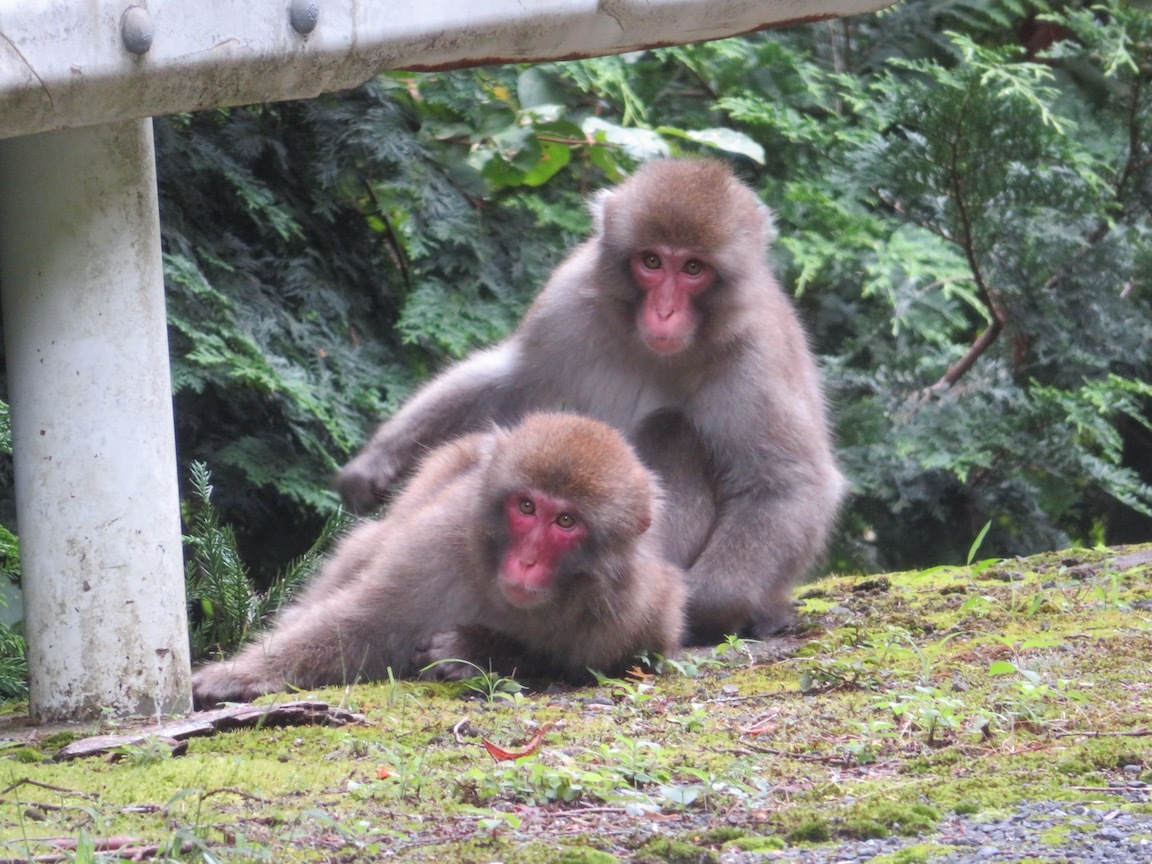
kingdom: Animalia
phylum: Chordata
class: Mammalia
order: Primates
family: Cercopithecidae
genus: Macaca
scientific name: Macaca fuscata
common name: Japanese macaque
